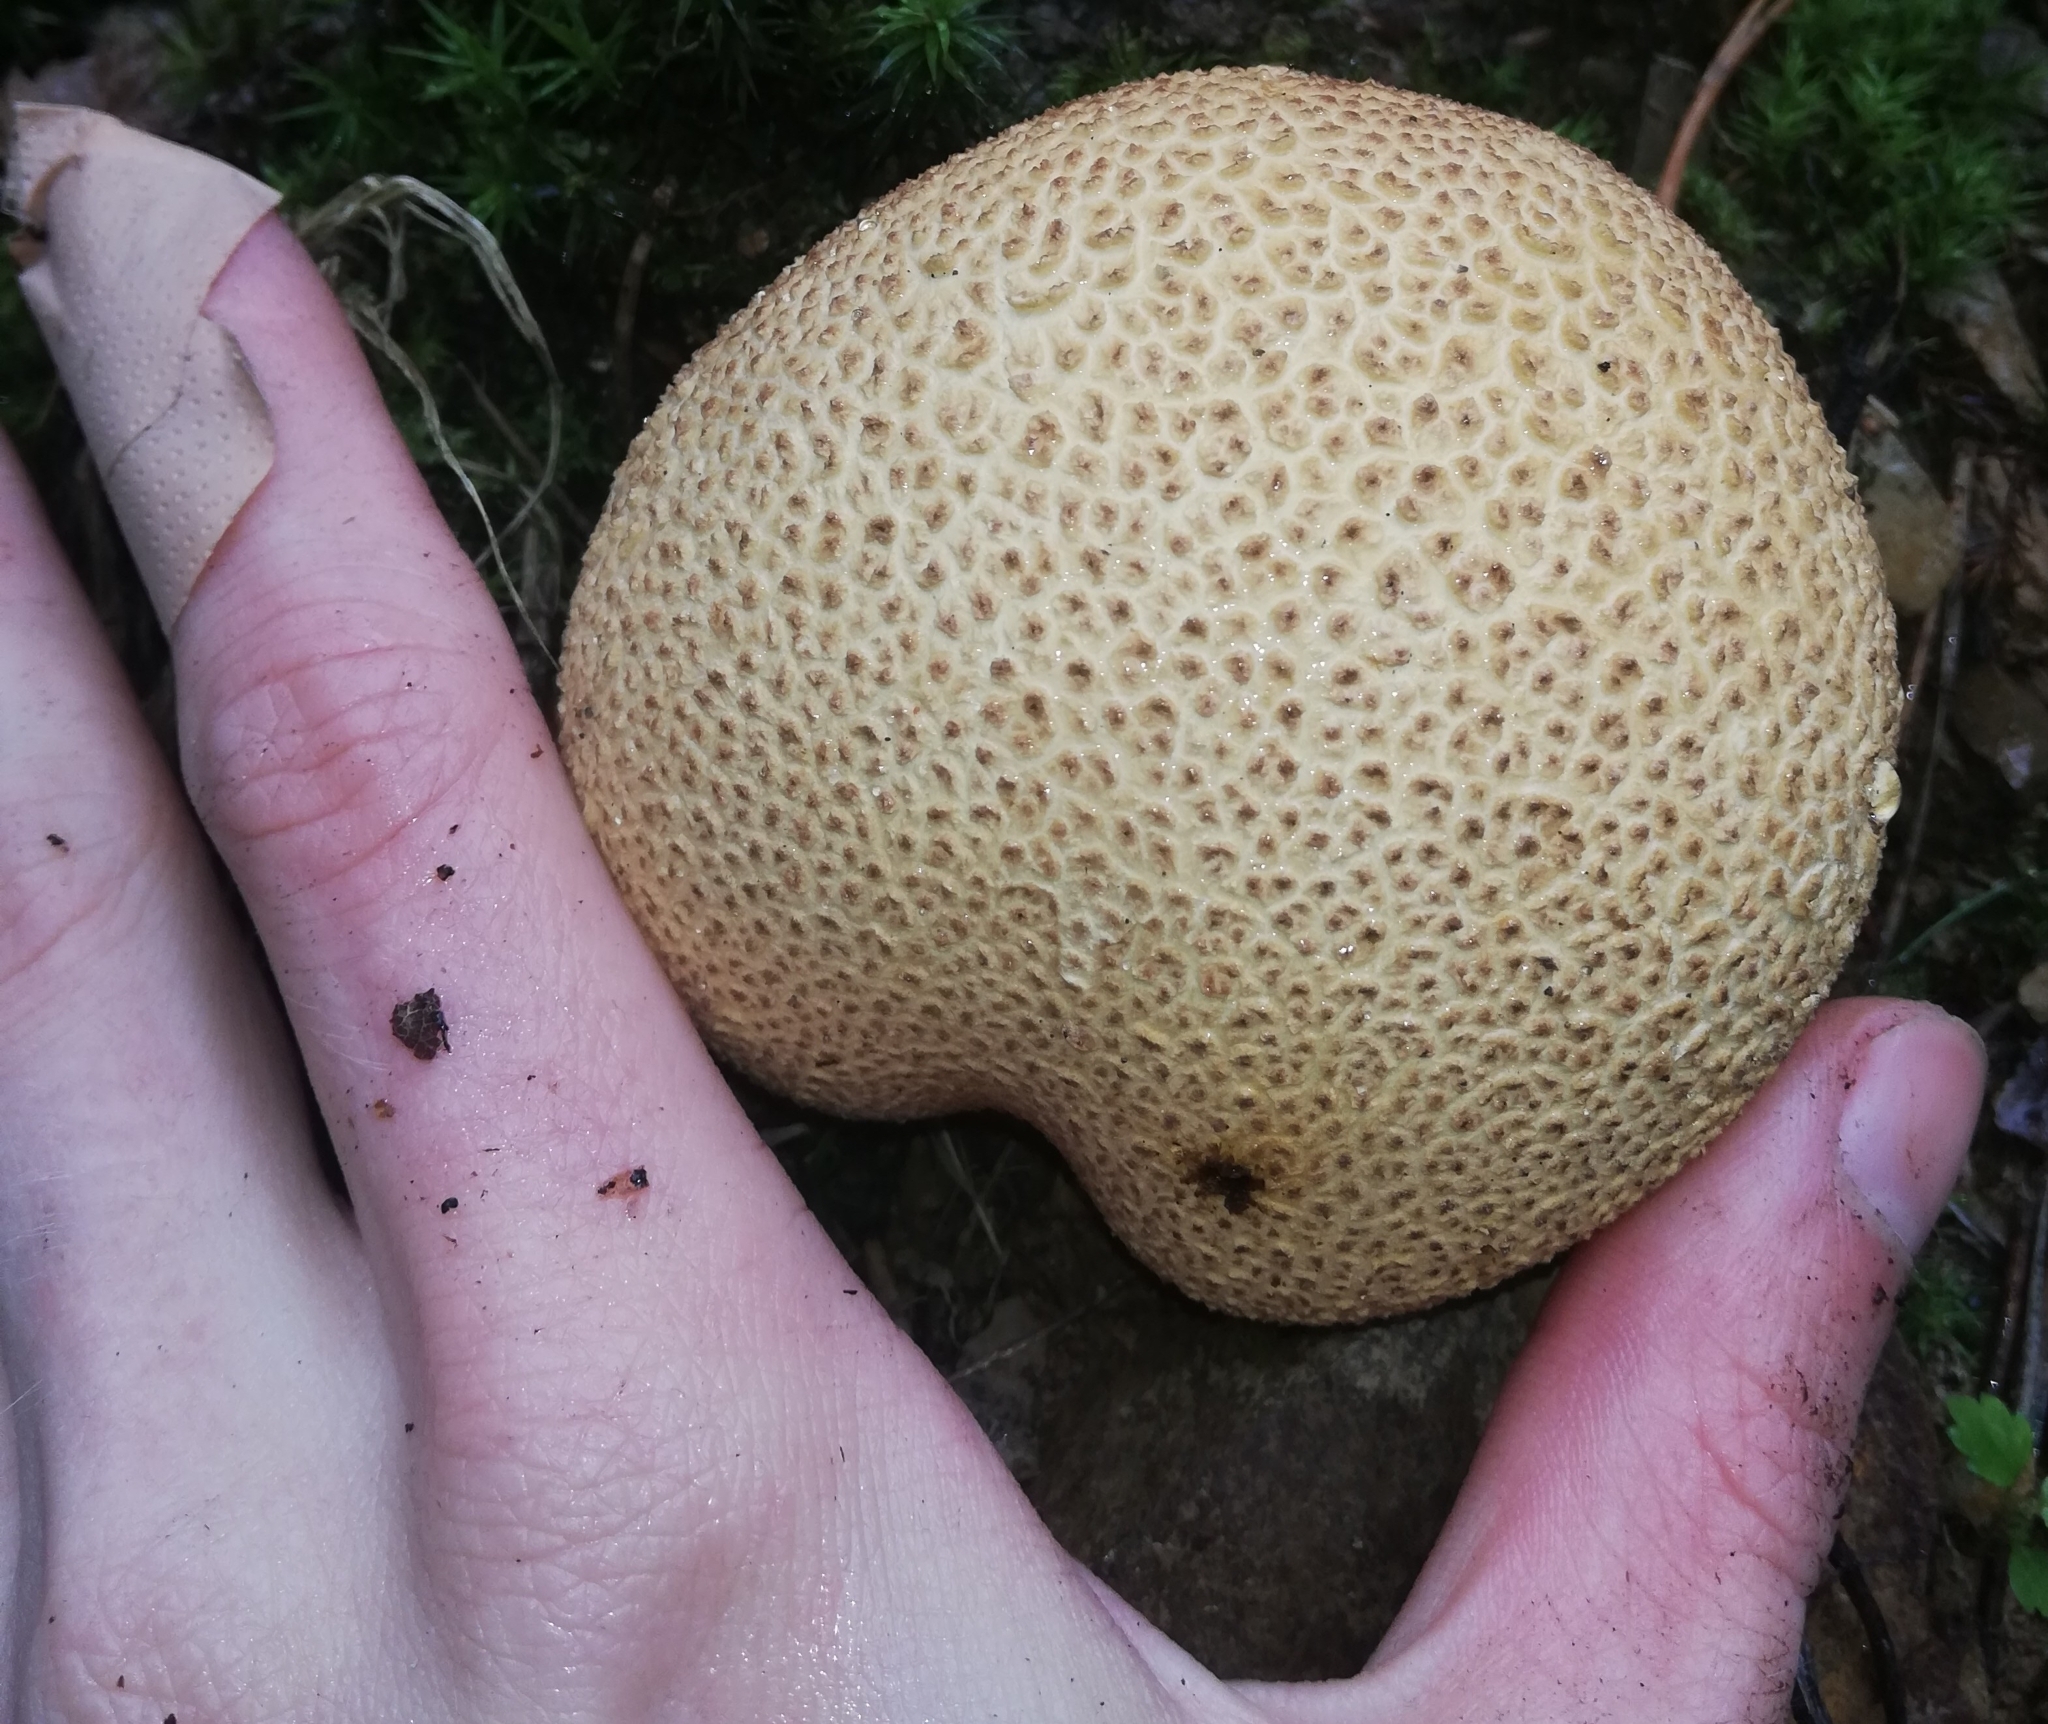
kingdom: Fungi
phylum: Basidiomycota
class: Agaricomycetes
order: Boletales
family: Sclerodermataceae
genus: Scleroderma
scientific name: Scleroderma citrinum
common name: Common earthball
